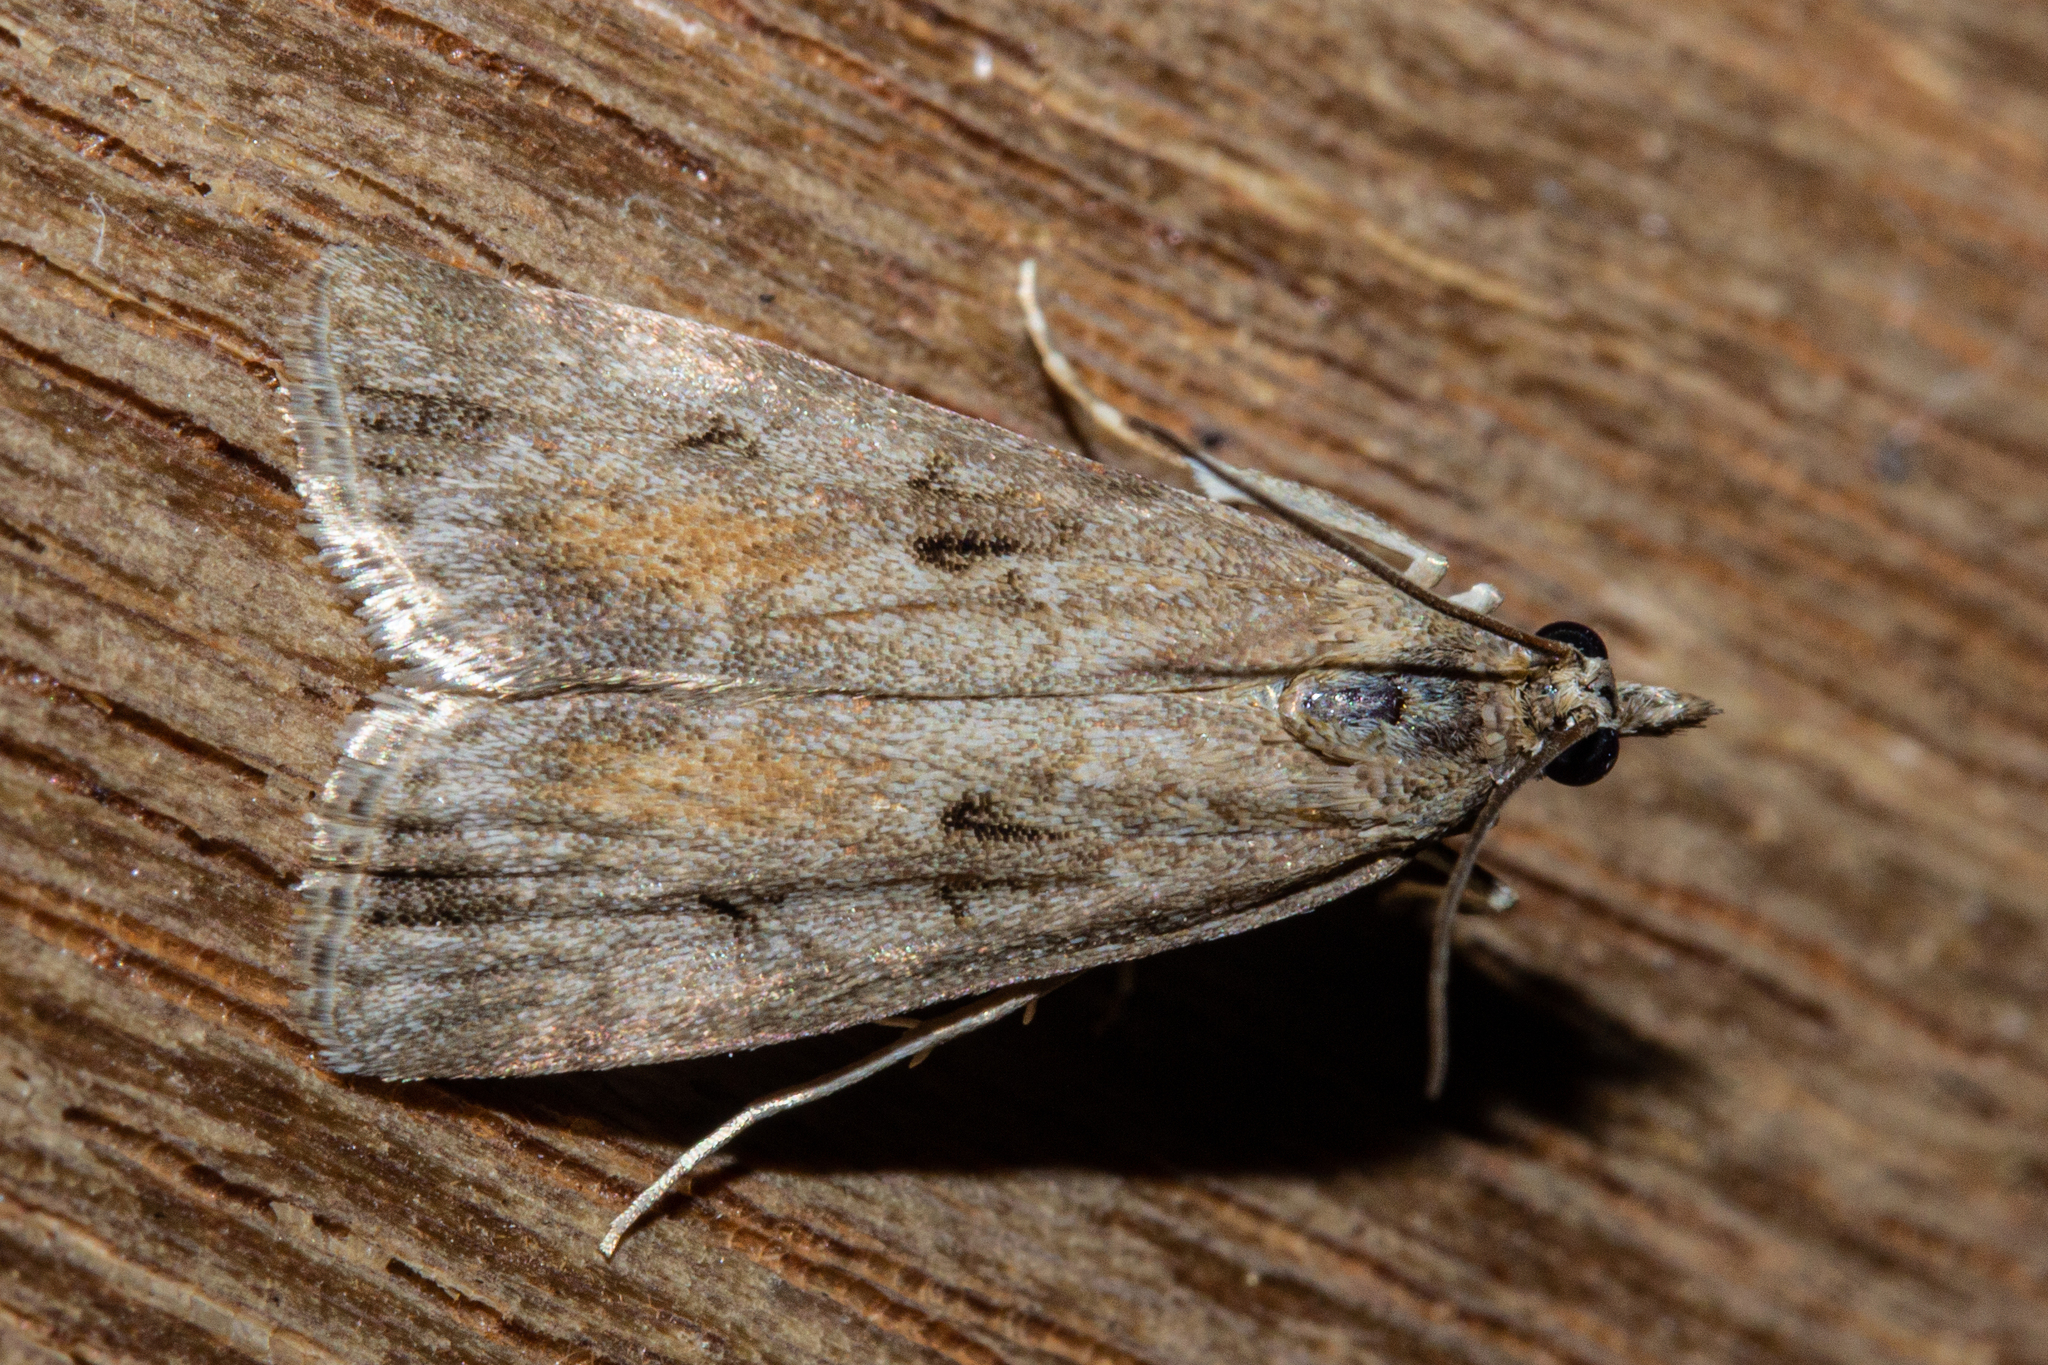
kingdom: Animalia
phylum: Arthropoda
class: Insecta
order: Lepidoptera
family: Crambidae
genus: Eudonia
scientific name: Eudonia submarginalis
